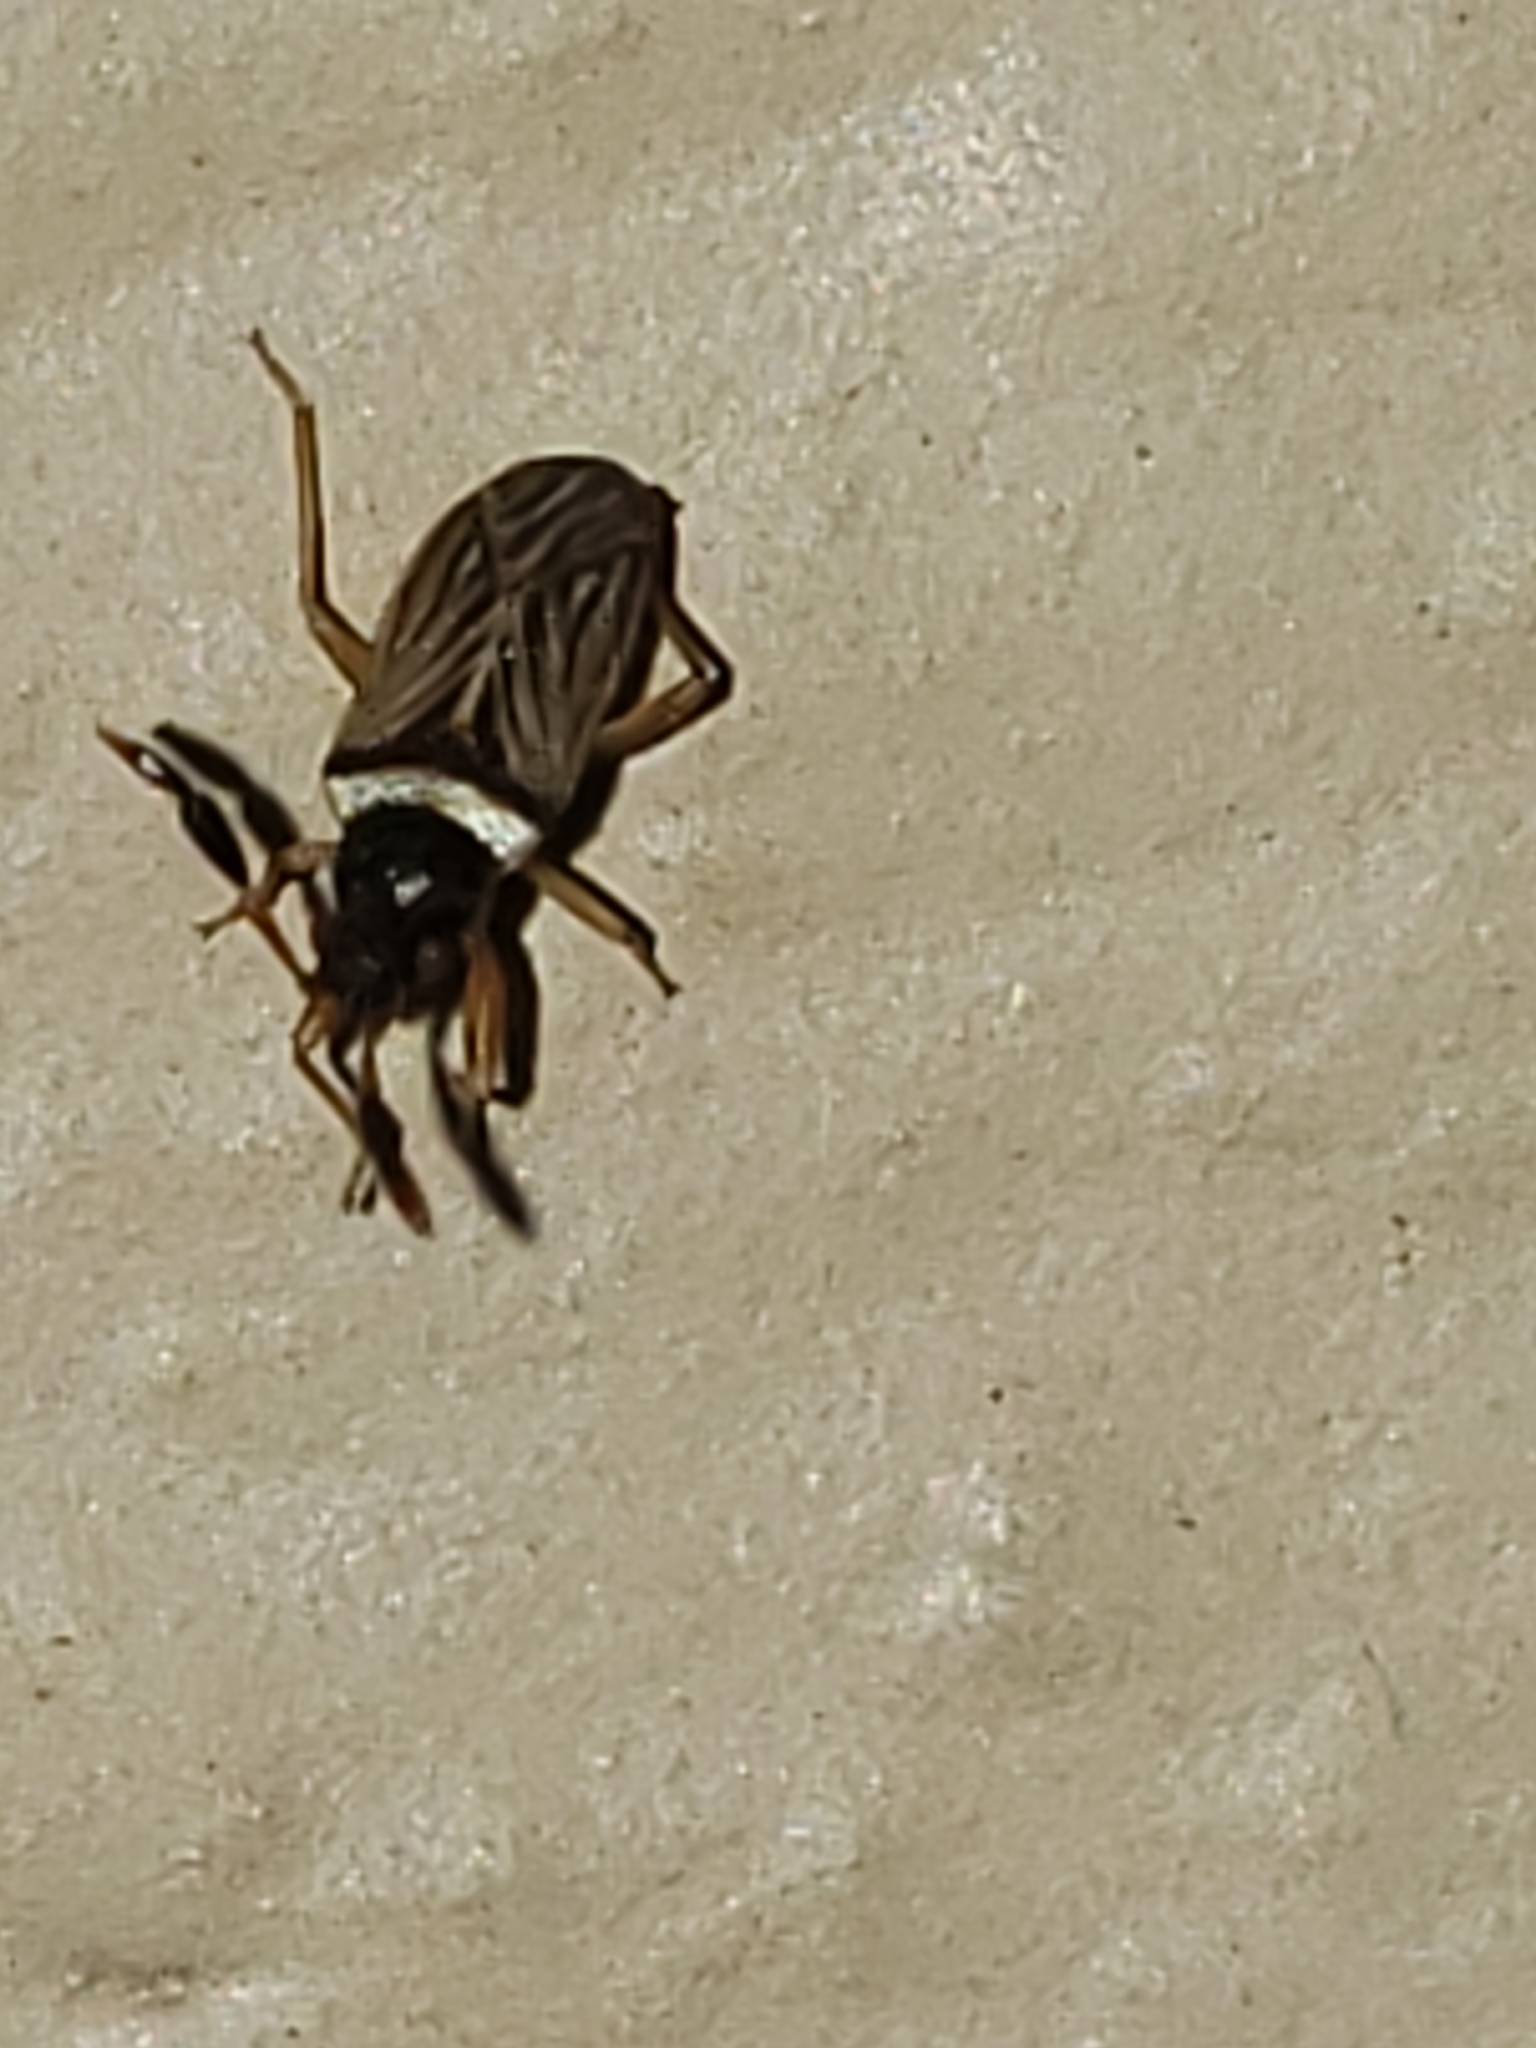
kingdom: Animalia
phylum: Arthropoda
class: Insecta
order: Hemiptera
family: Rhyparochromidae
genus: Ptochiomera
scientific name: Ptochiomera nodosa
